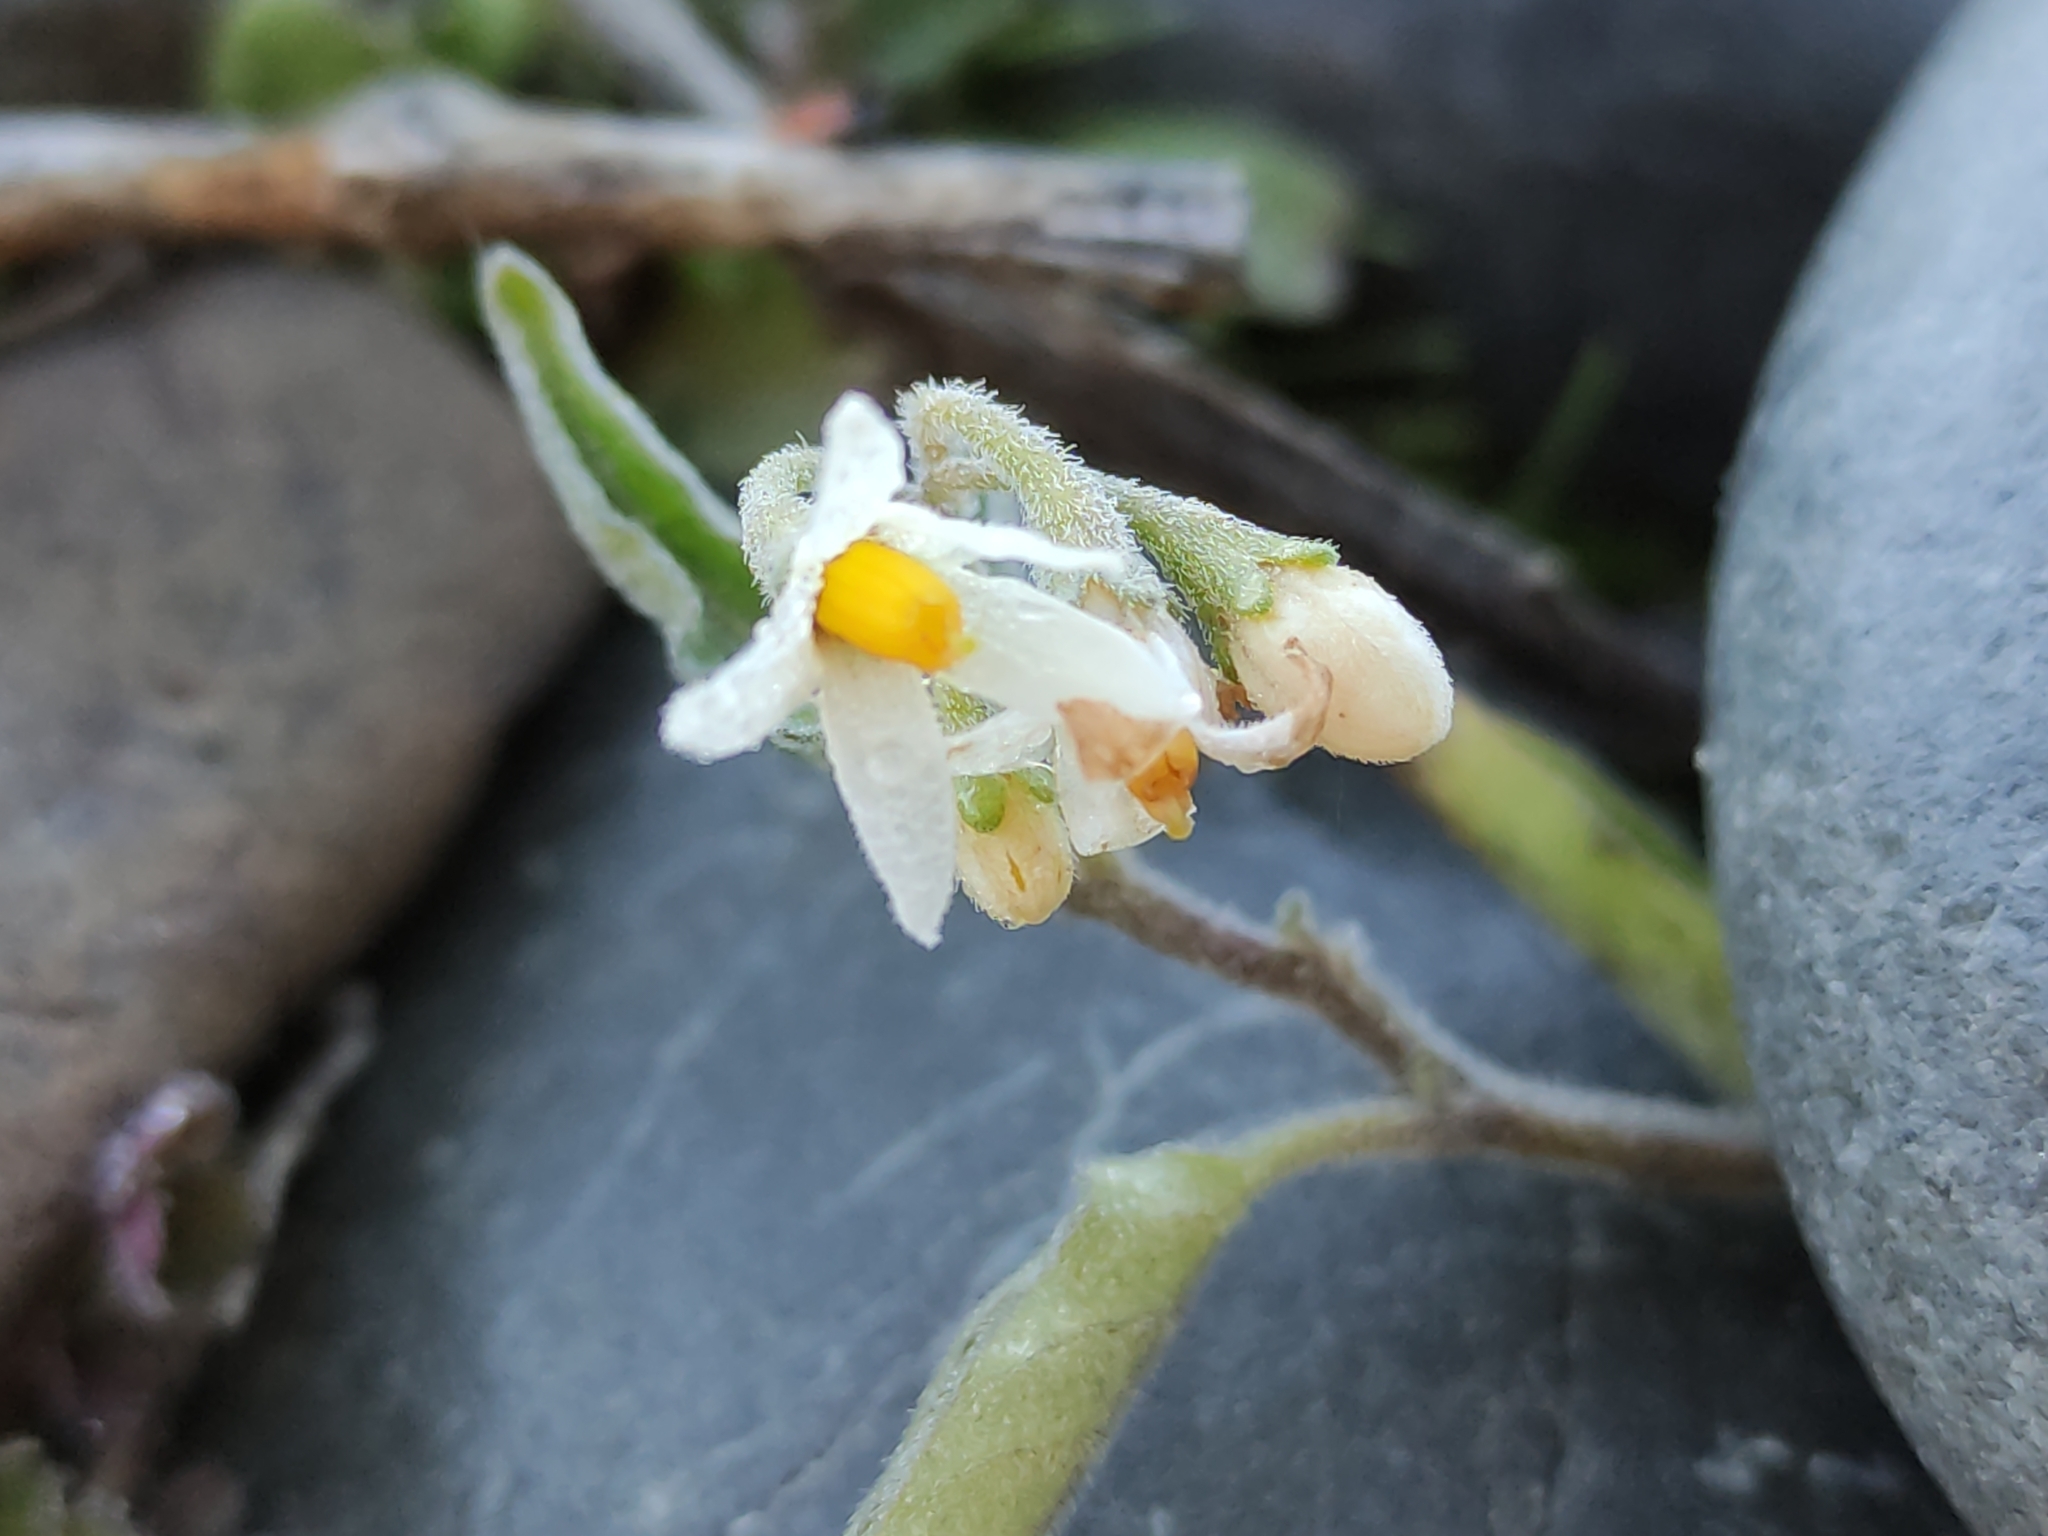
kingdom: Plantae
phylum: Tracheophyta
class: Magnoliopsida
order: Solanales
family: Solanaceae
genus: Solanum
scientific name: Solanum chenopodioides
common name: Tall nightshade
